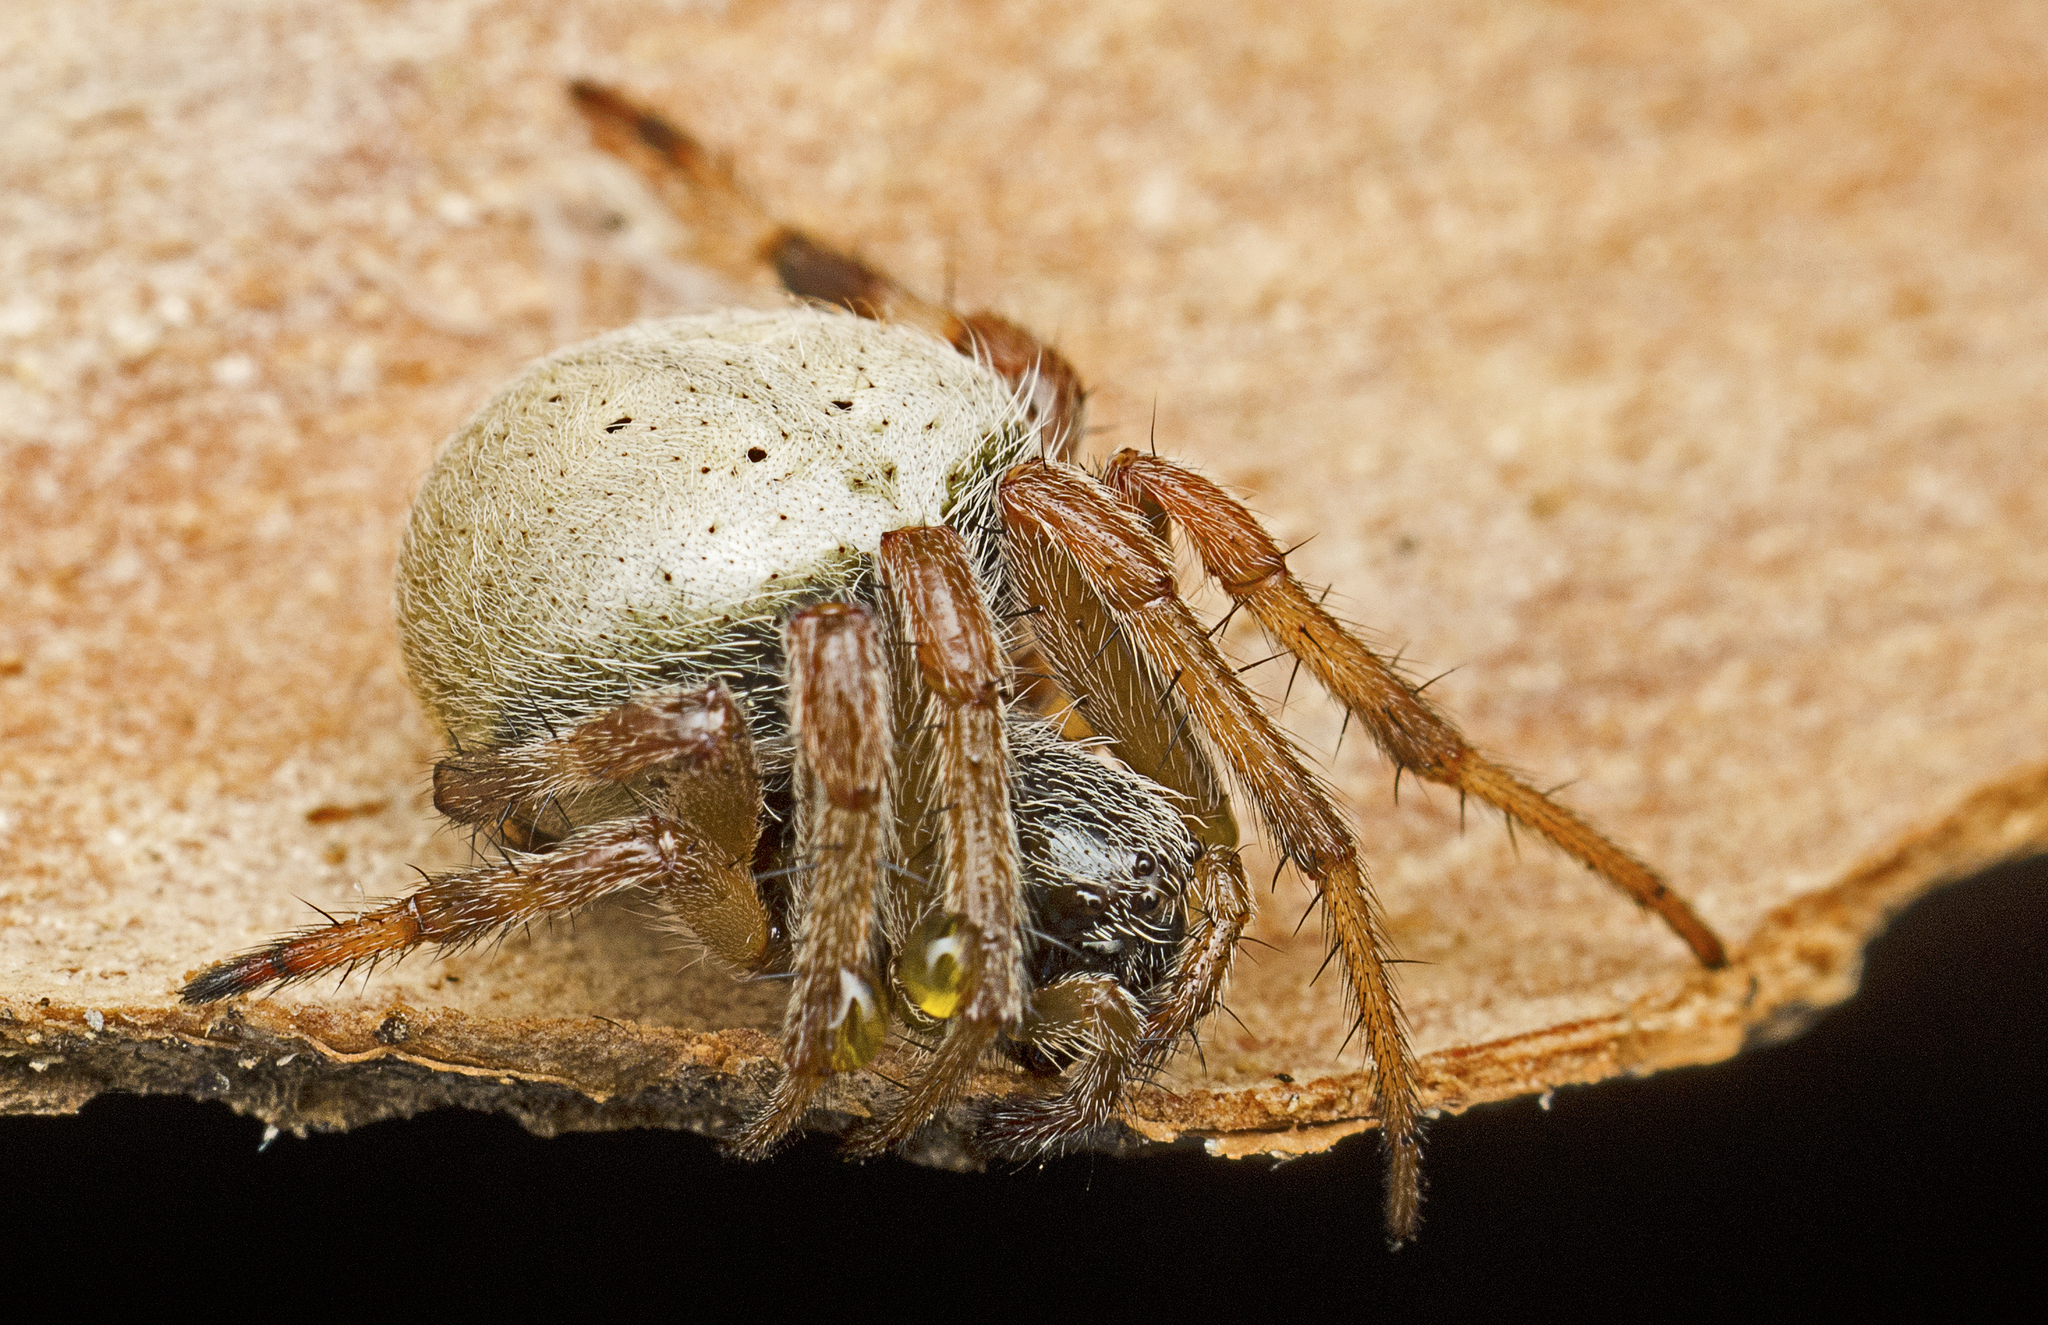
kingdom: Animalia
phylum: Arthropoda
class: Arachnida
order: Araneae
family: Araneidae
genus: Araneus
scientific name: Araneus dimidiatus
